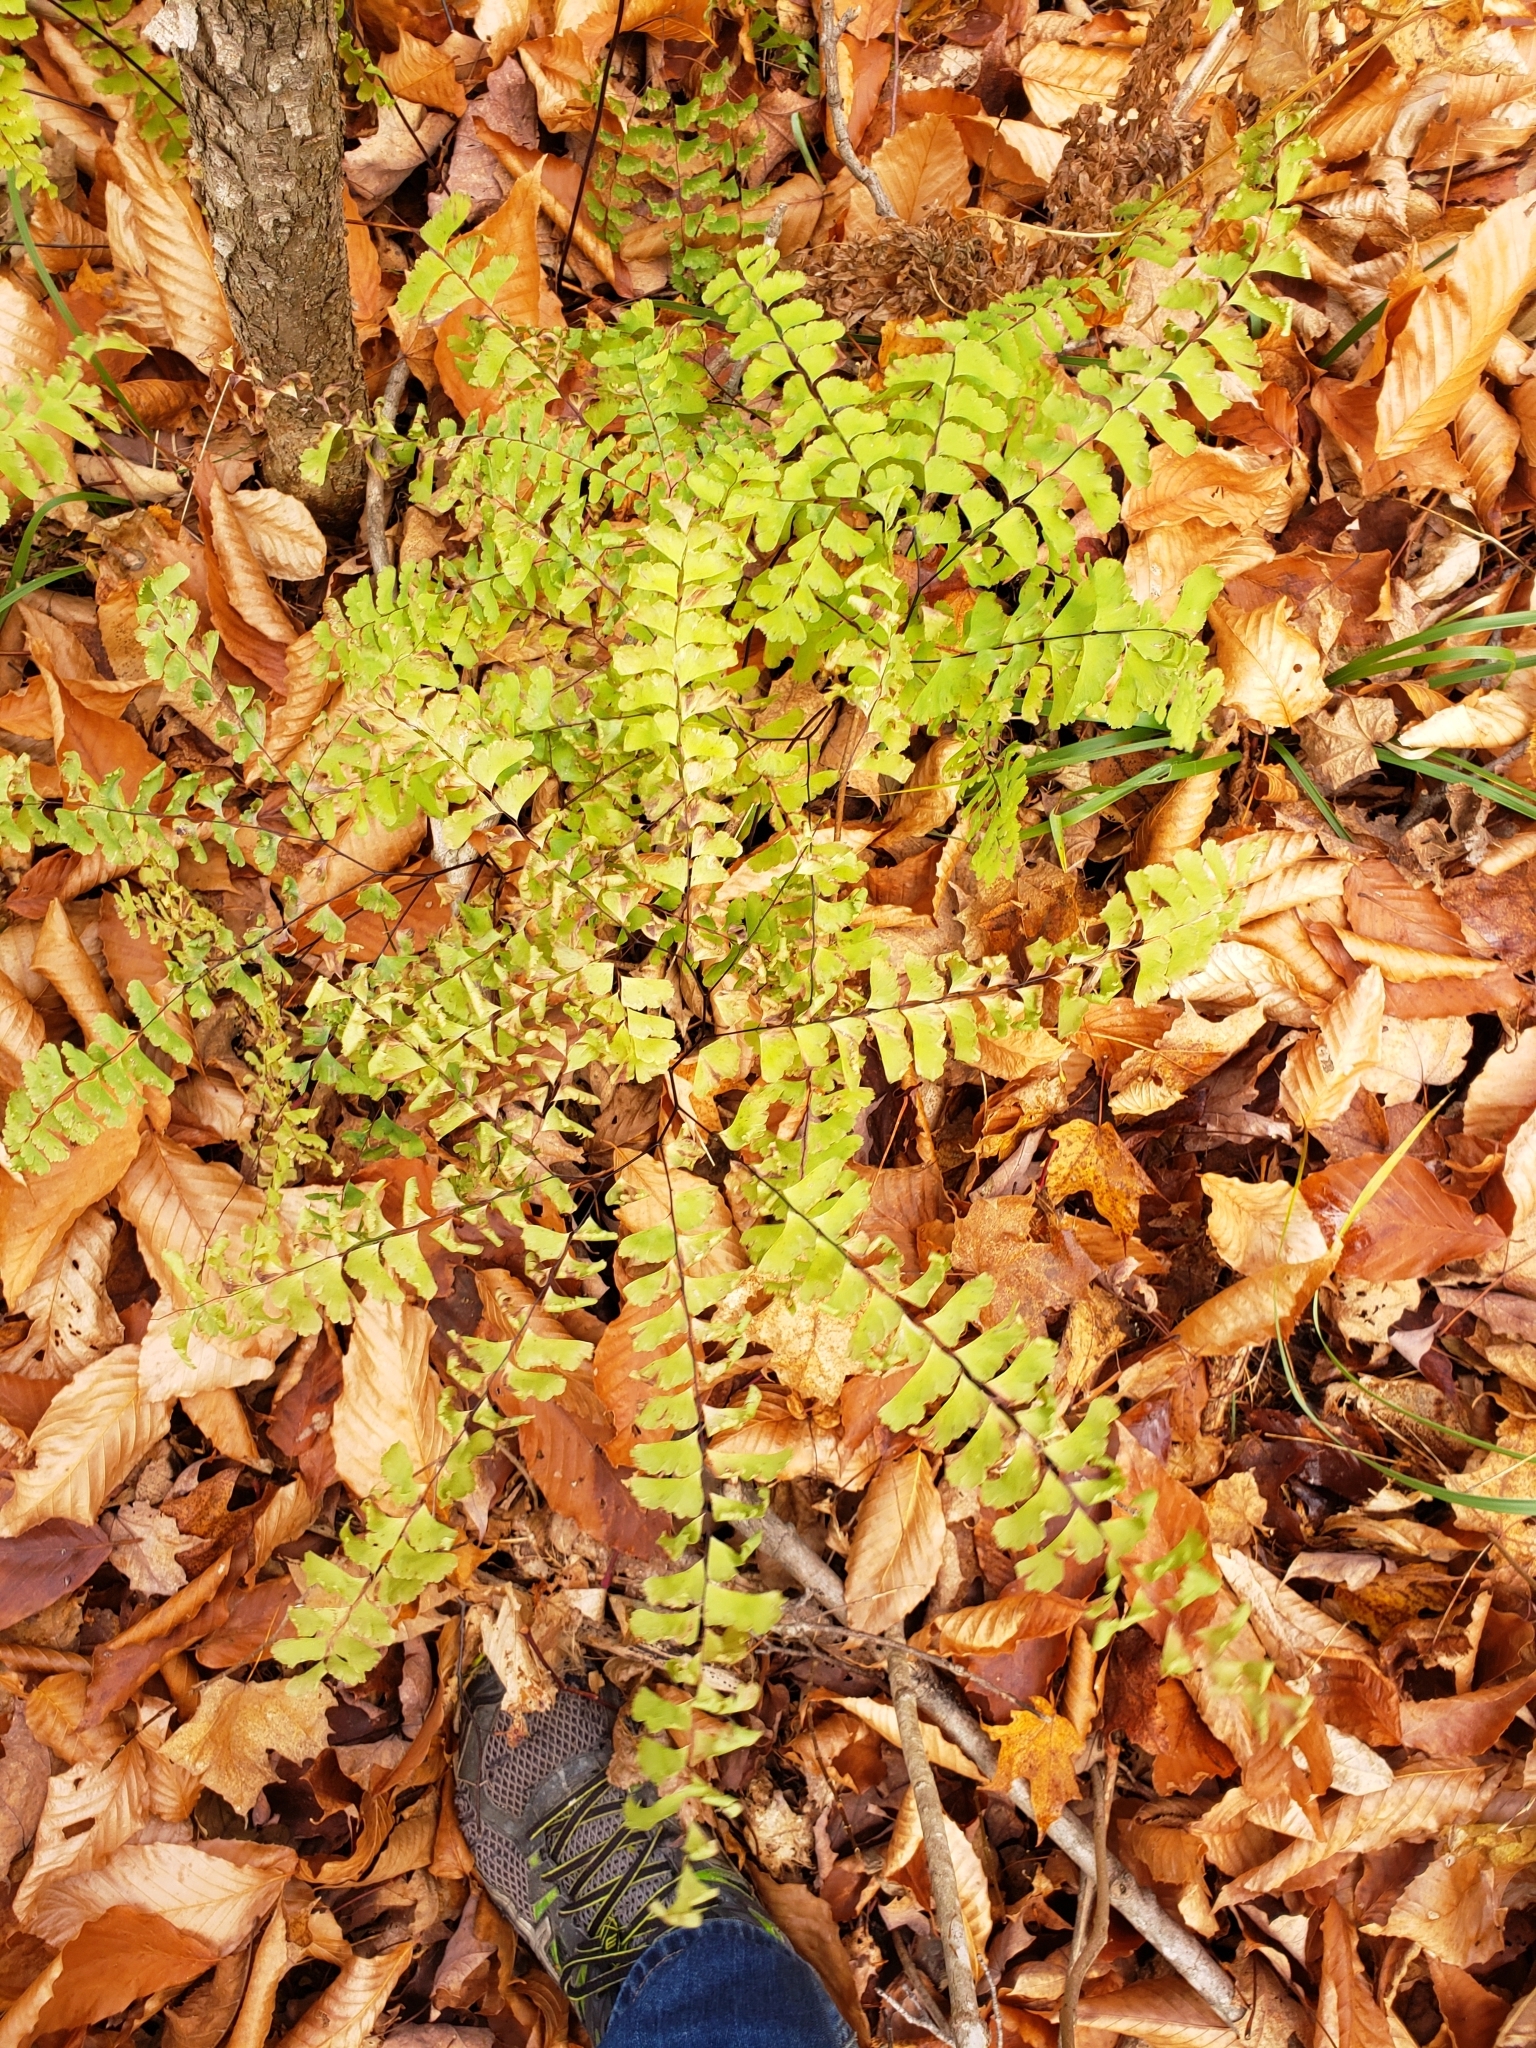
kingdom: Plantae
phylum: Tracheophyta
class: Polypodiopsida
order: Polypodiales
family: Pteridaceae
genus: Adiantum
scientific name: Adiantum pedatum
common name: Five-finger fern
